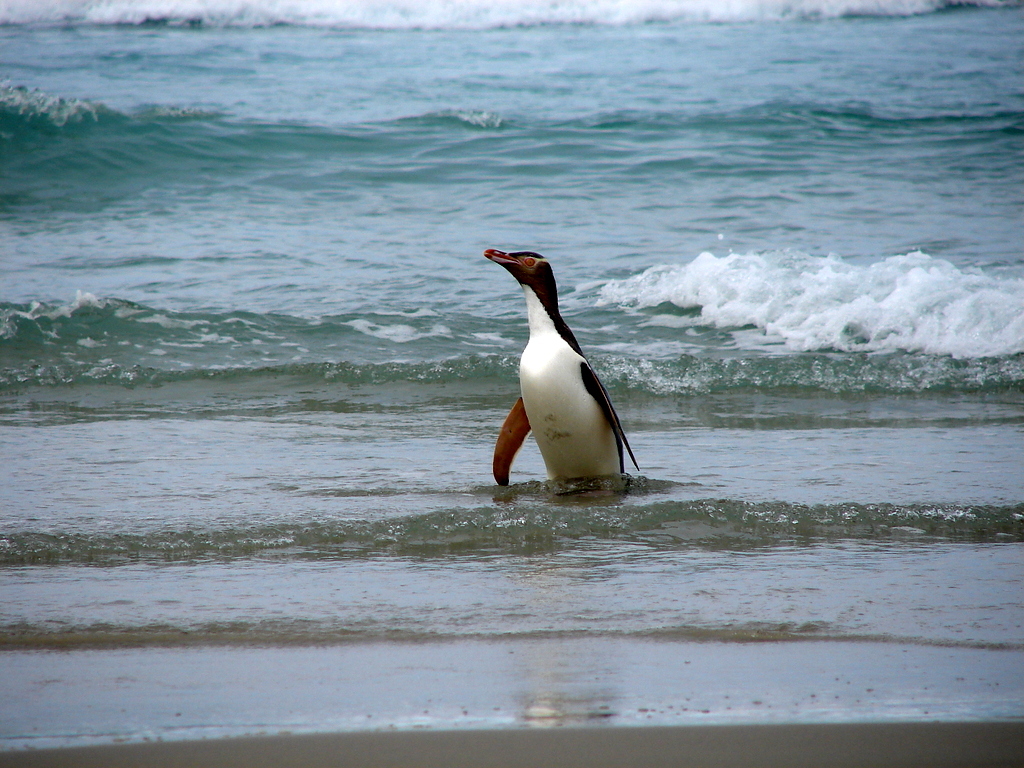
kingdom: Animalia
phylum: Chordata
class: Aves
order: Sphenisciformes
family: Spheniscidae
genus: Megadyptes
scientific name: Megadyptes antipodes
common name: Yellow-eyed penguin
